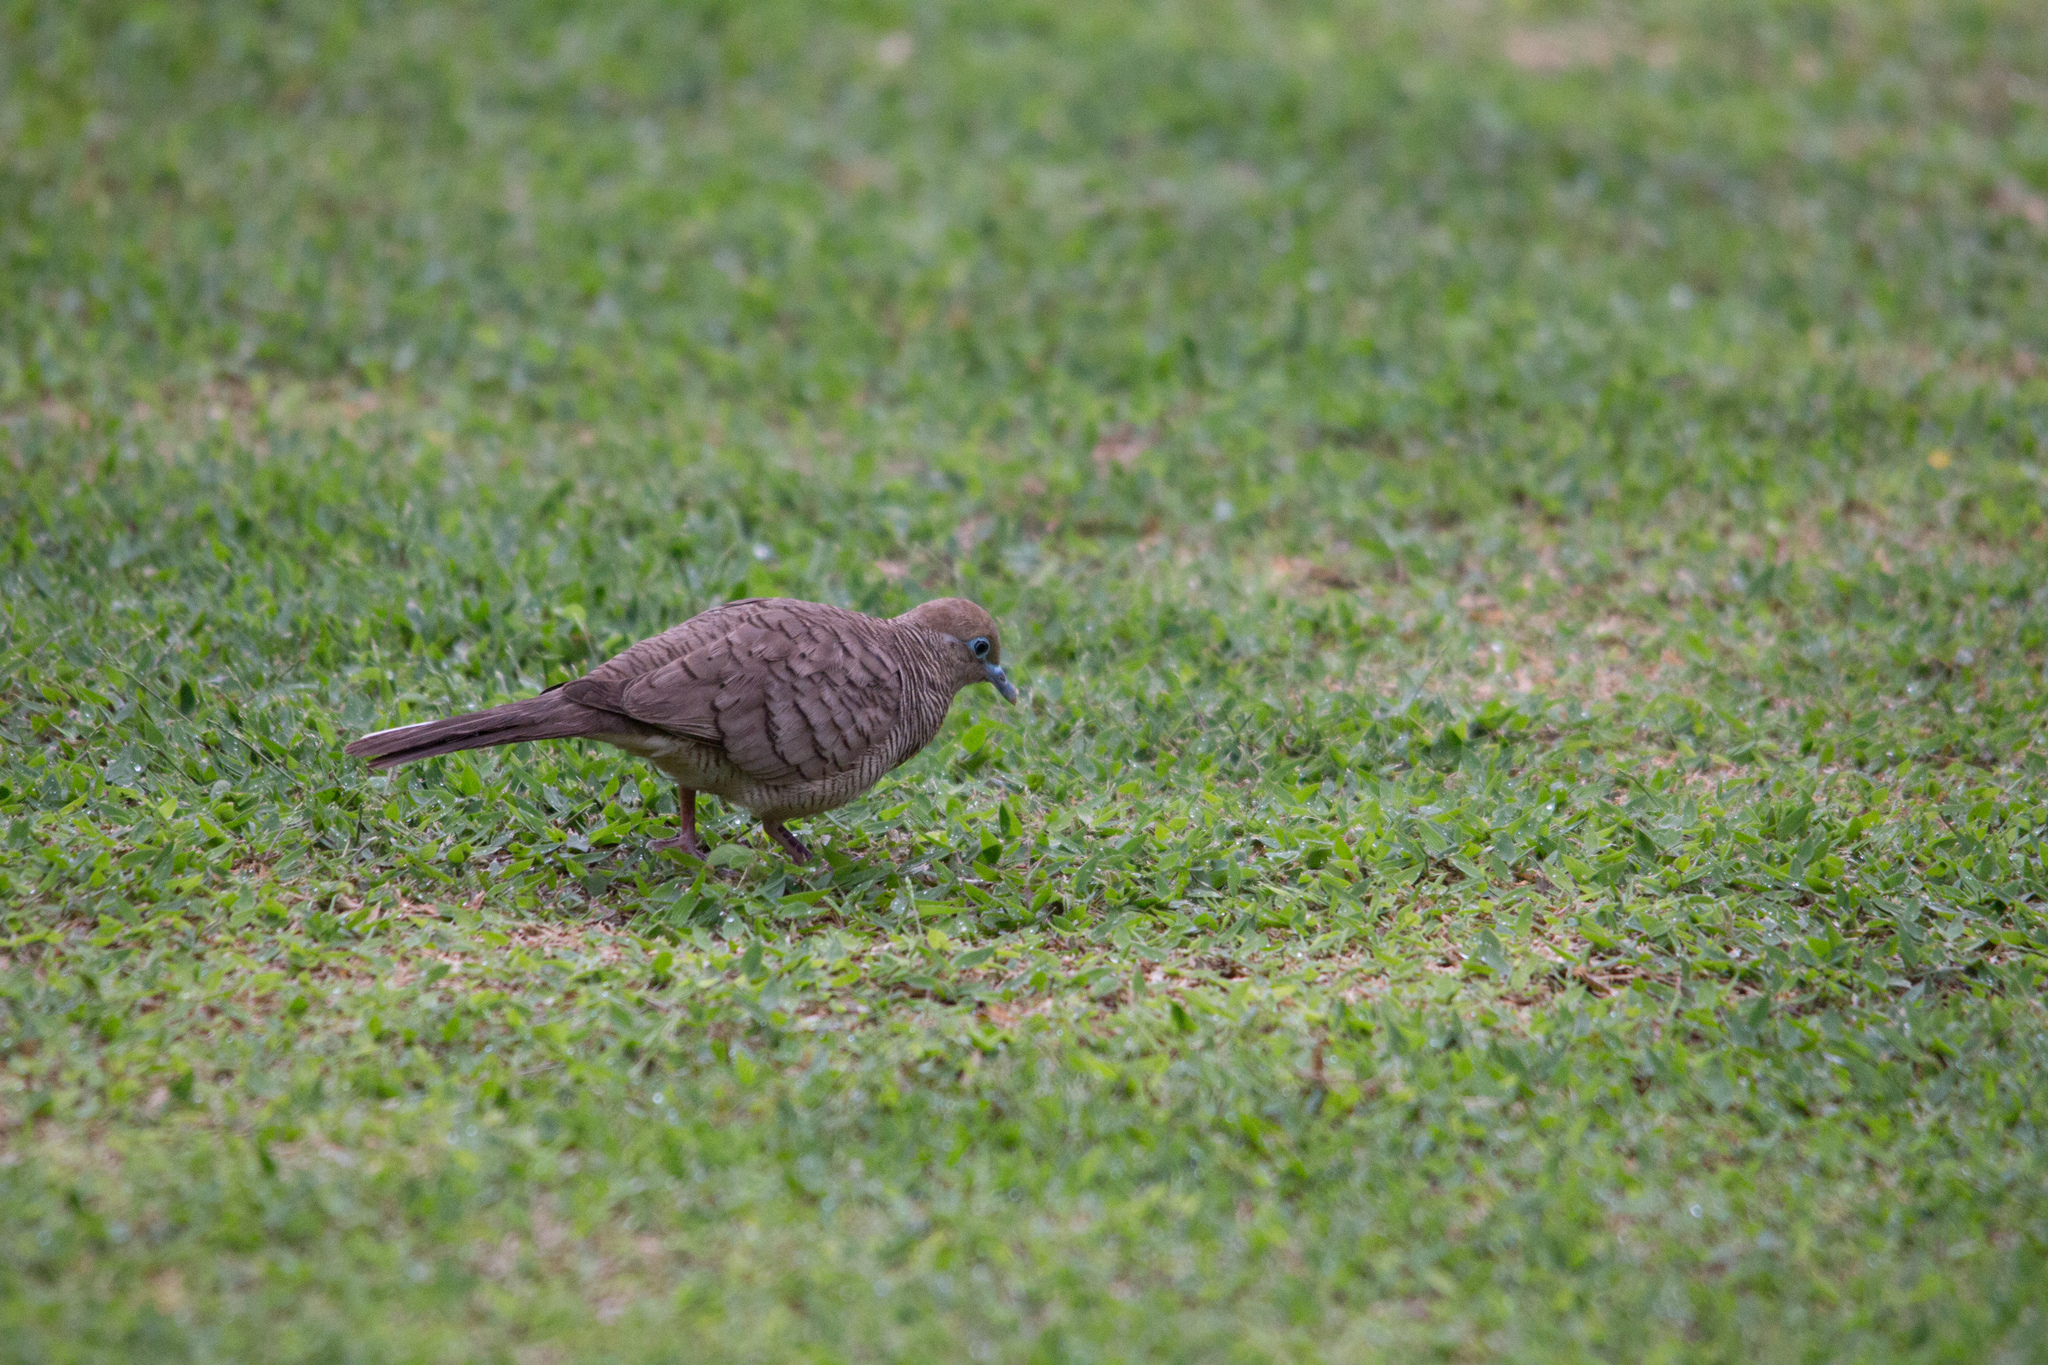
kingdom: Animalia
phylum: Chordata
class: Aves
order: Columbiformes
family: Columbidae
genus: Geopelia
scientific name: Geopelia striata
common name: Zebra dove
